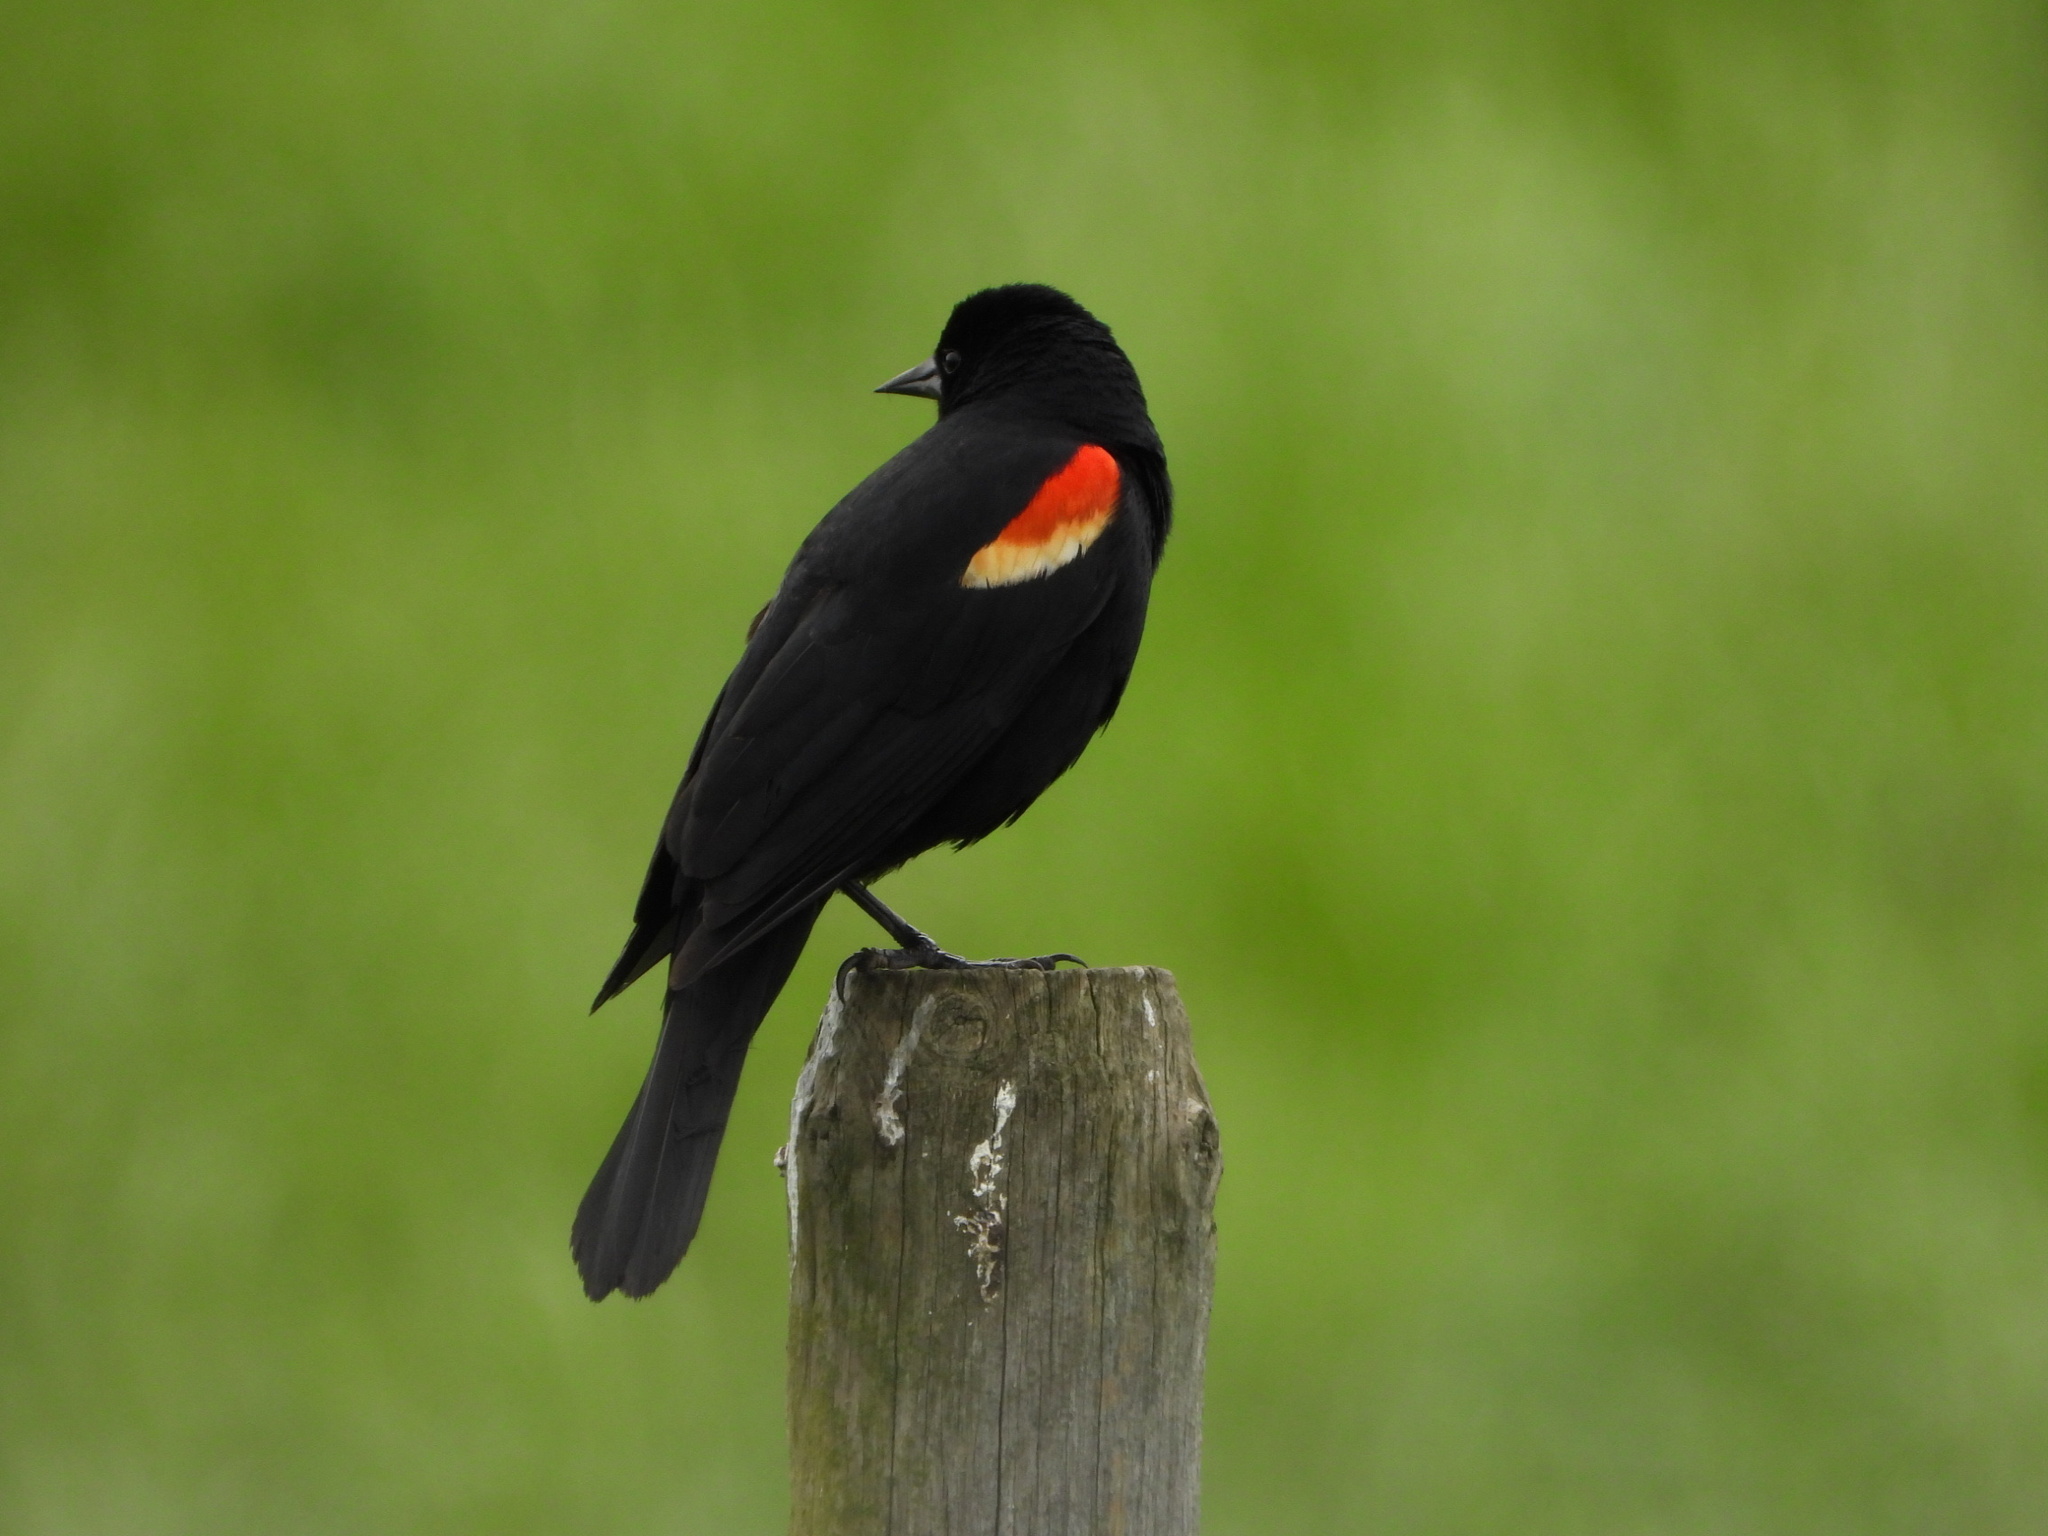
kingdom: Animalia
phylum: Chordata
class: Aves
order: Passeriformes
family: Icteridae
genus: Agelaius
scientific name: Agelaius phoeniceus
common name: Red-winged blackbird
